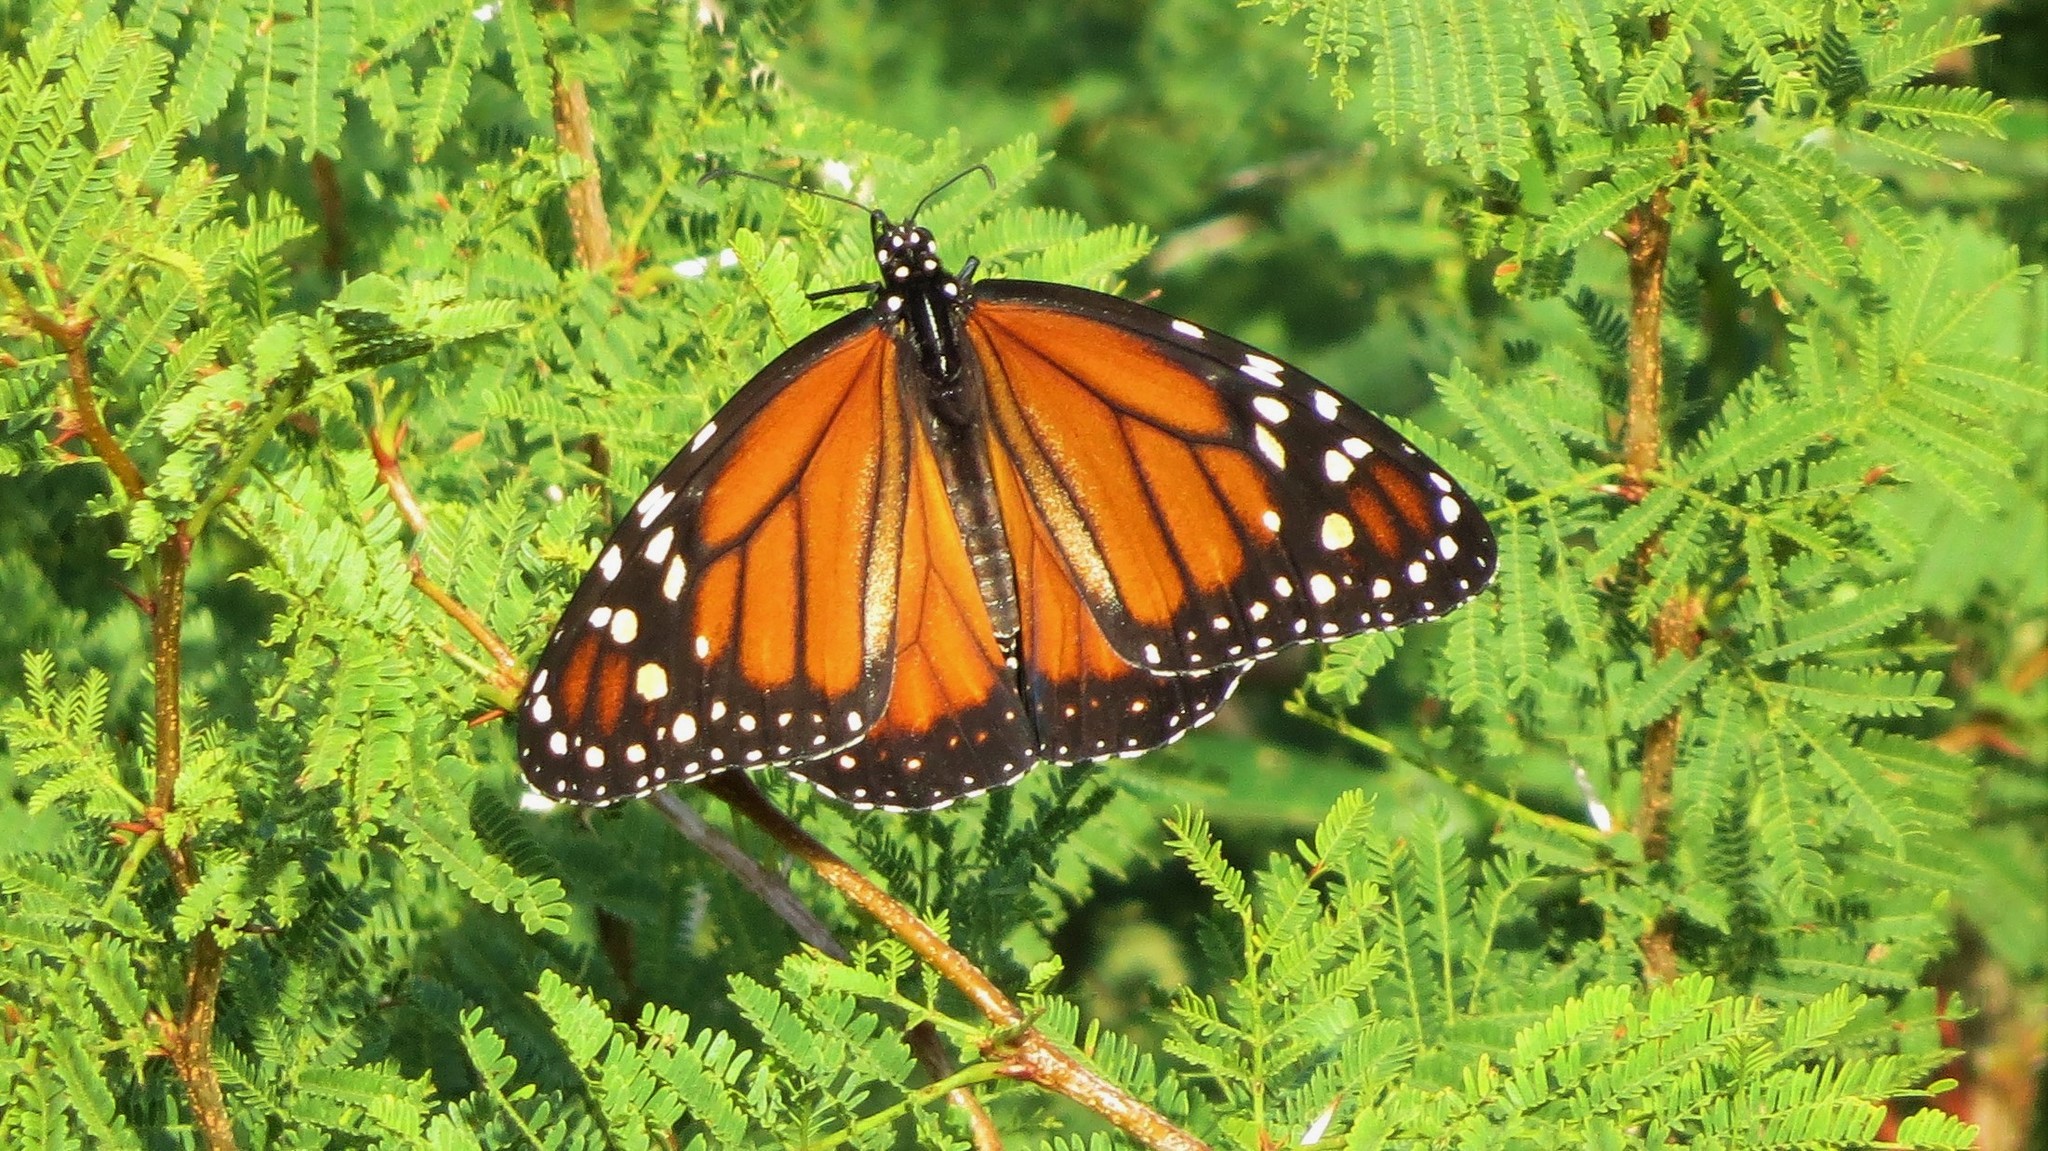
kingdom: Animalia
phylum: Arthropoda
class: Insecta
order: Lepidoptera
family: Nymphalidae
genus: Danaus
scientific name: Danaus erippus
